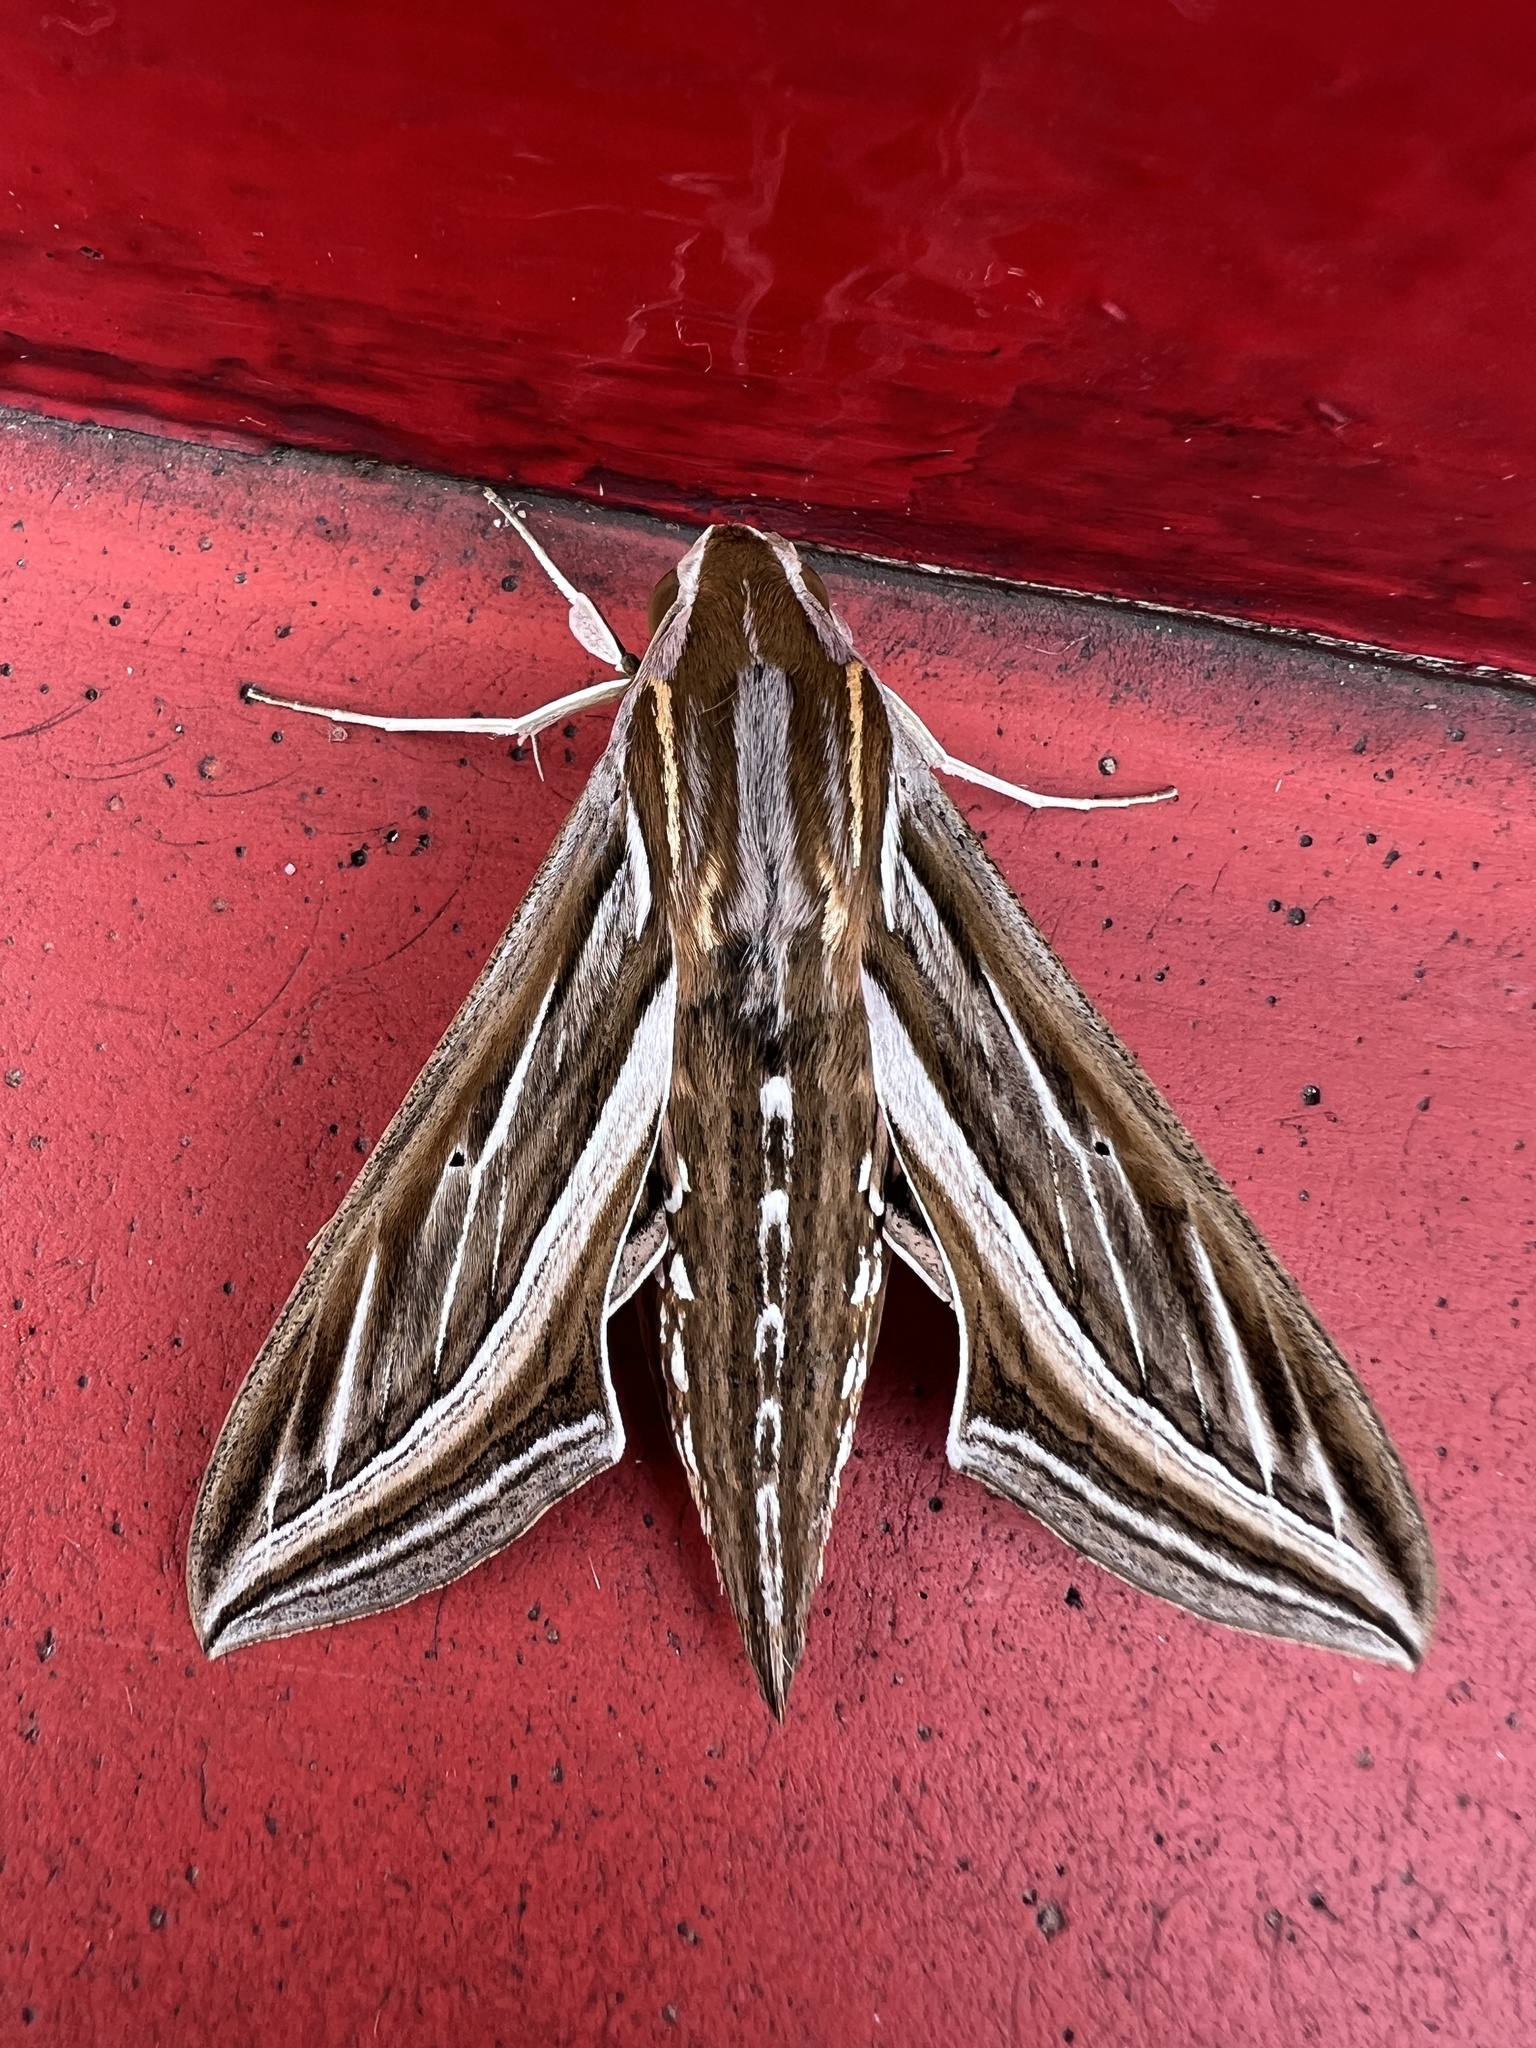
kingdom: Animalia
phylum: Arthropoda
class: Insecta
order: Lepidoptera
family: Sphingidae
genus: Hippotion
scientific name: Hippotion celerio
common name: Silver-striped hawk-moth
